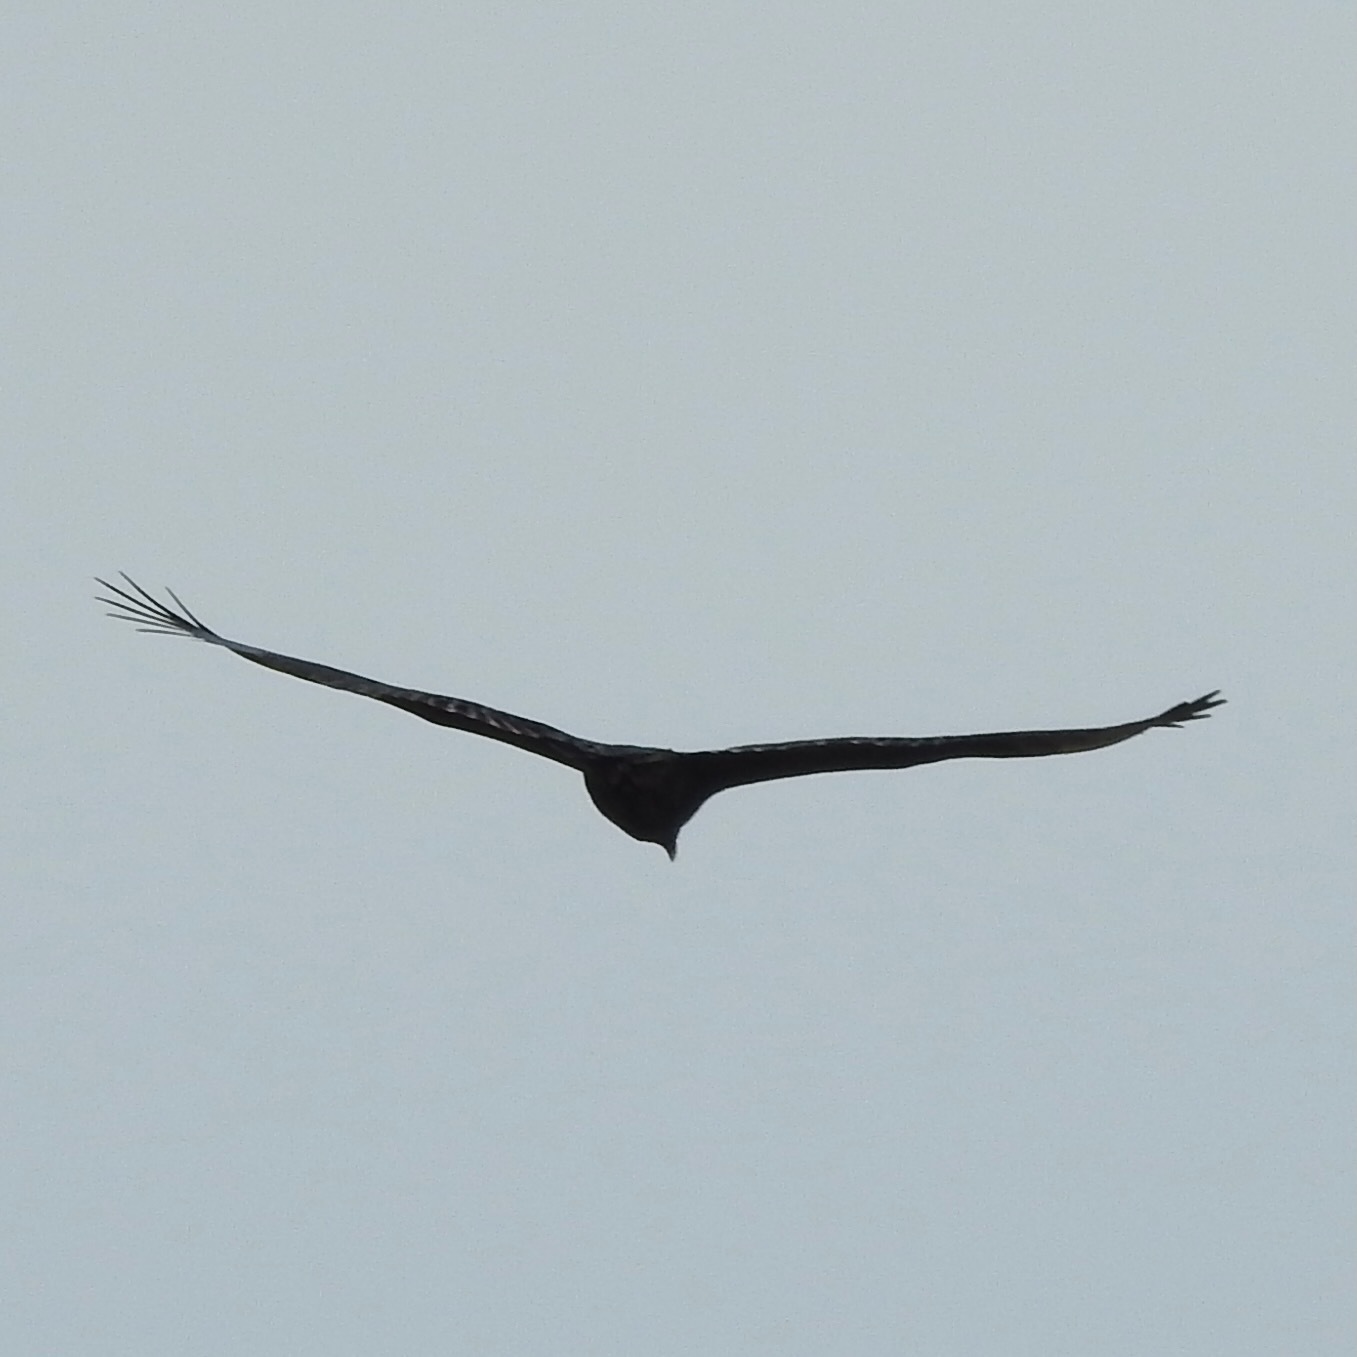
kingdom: Animalia
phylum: Chordata
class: Aves
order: Accipitriformes
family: Cathartidae
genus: Cathartes
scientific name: Cathartes aura
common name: Turkey vulture
